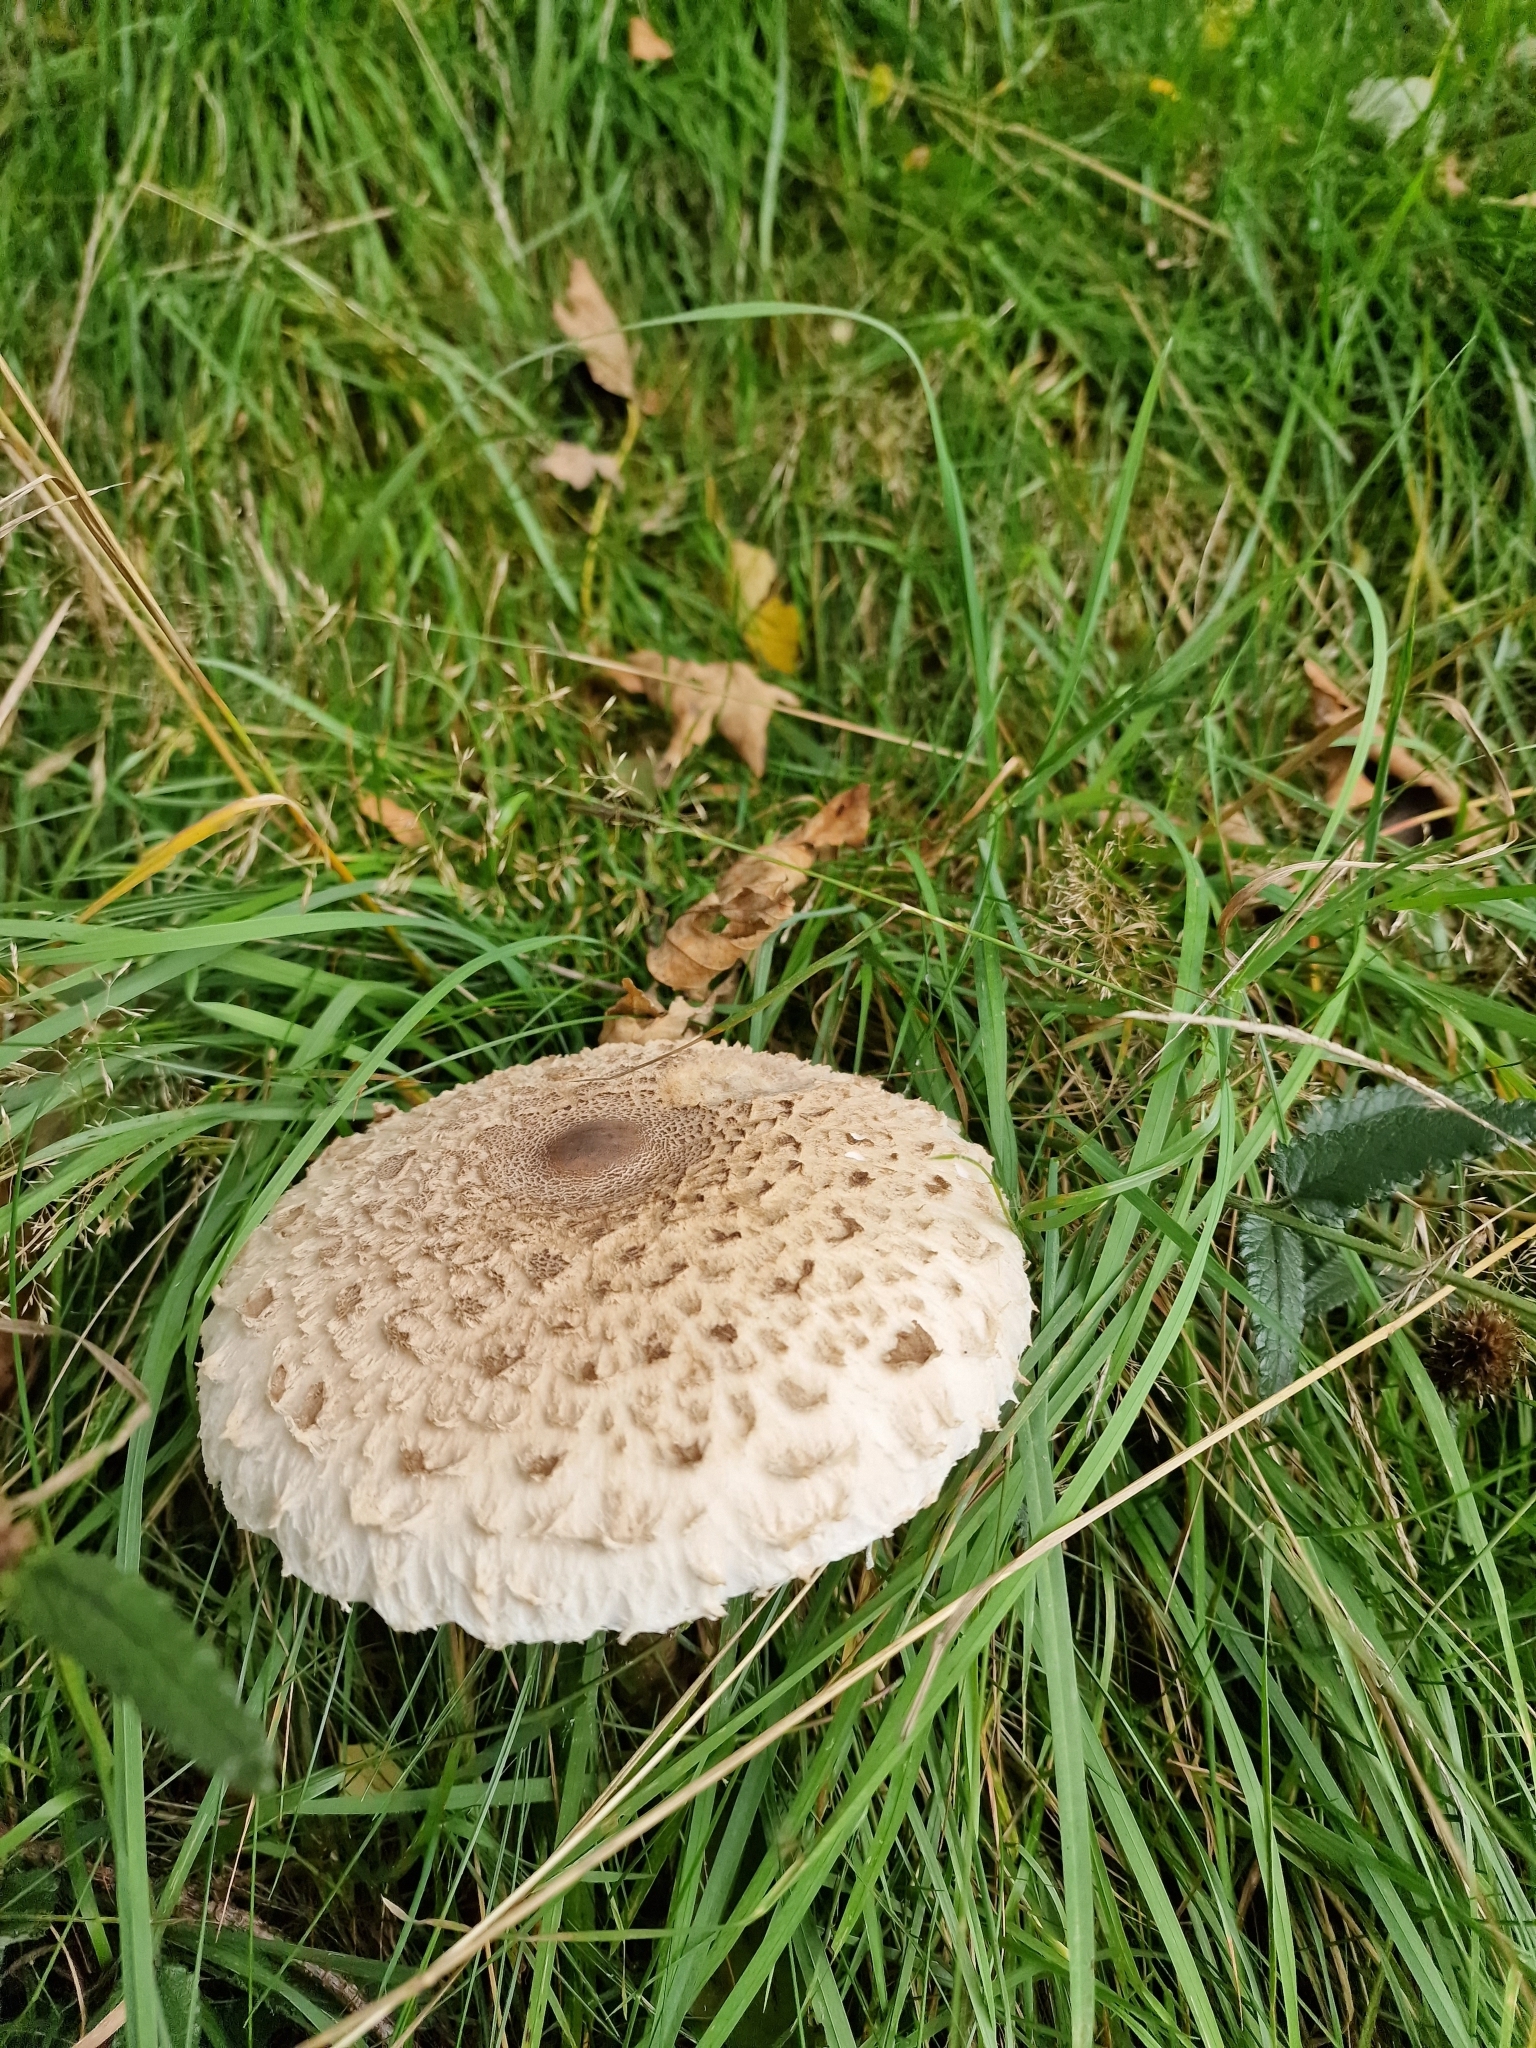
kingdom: Fungi
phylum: Basidiomycota
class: Agaricomycetes
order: Agaricales
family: Agaricaceae
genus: Macrolepiota
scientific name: Macrolepiota procera
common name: Parasol
